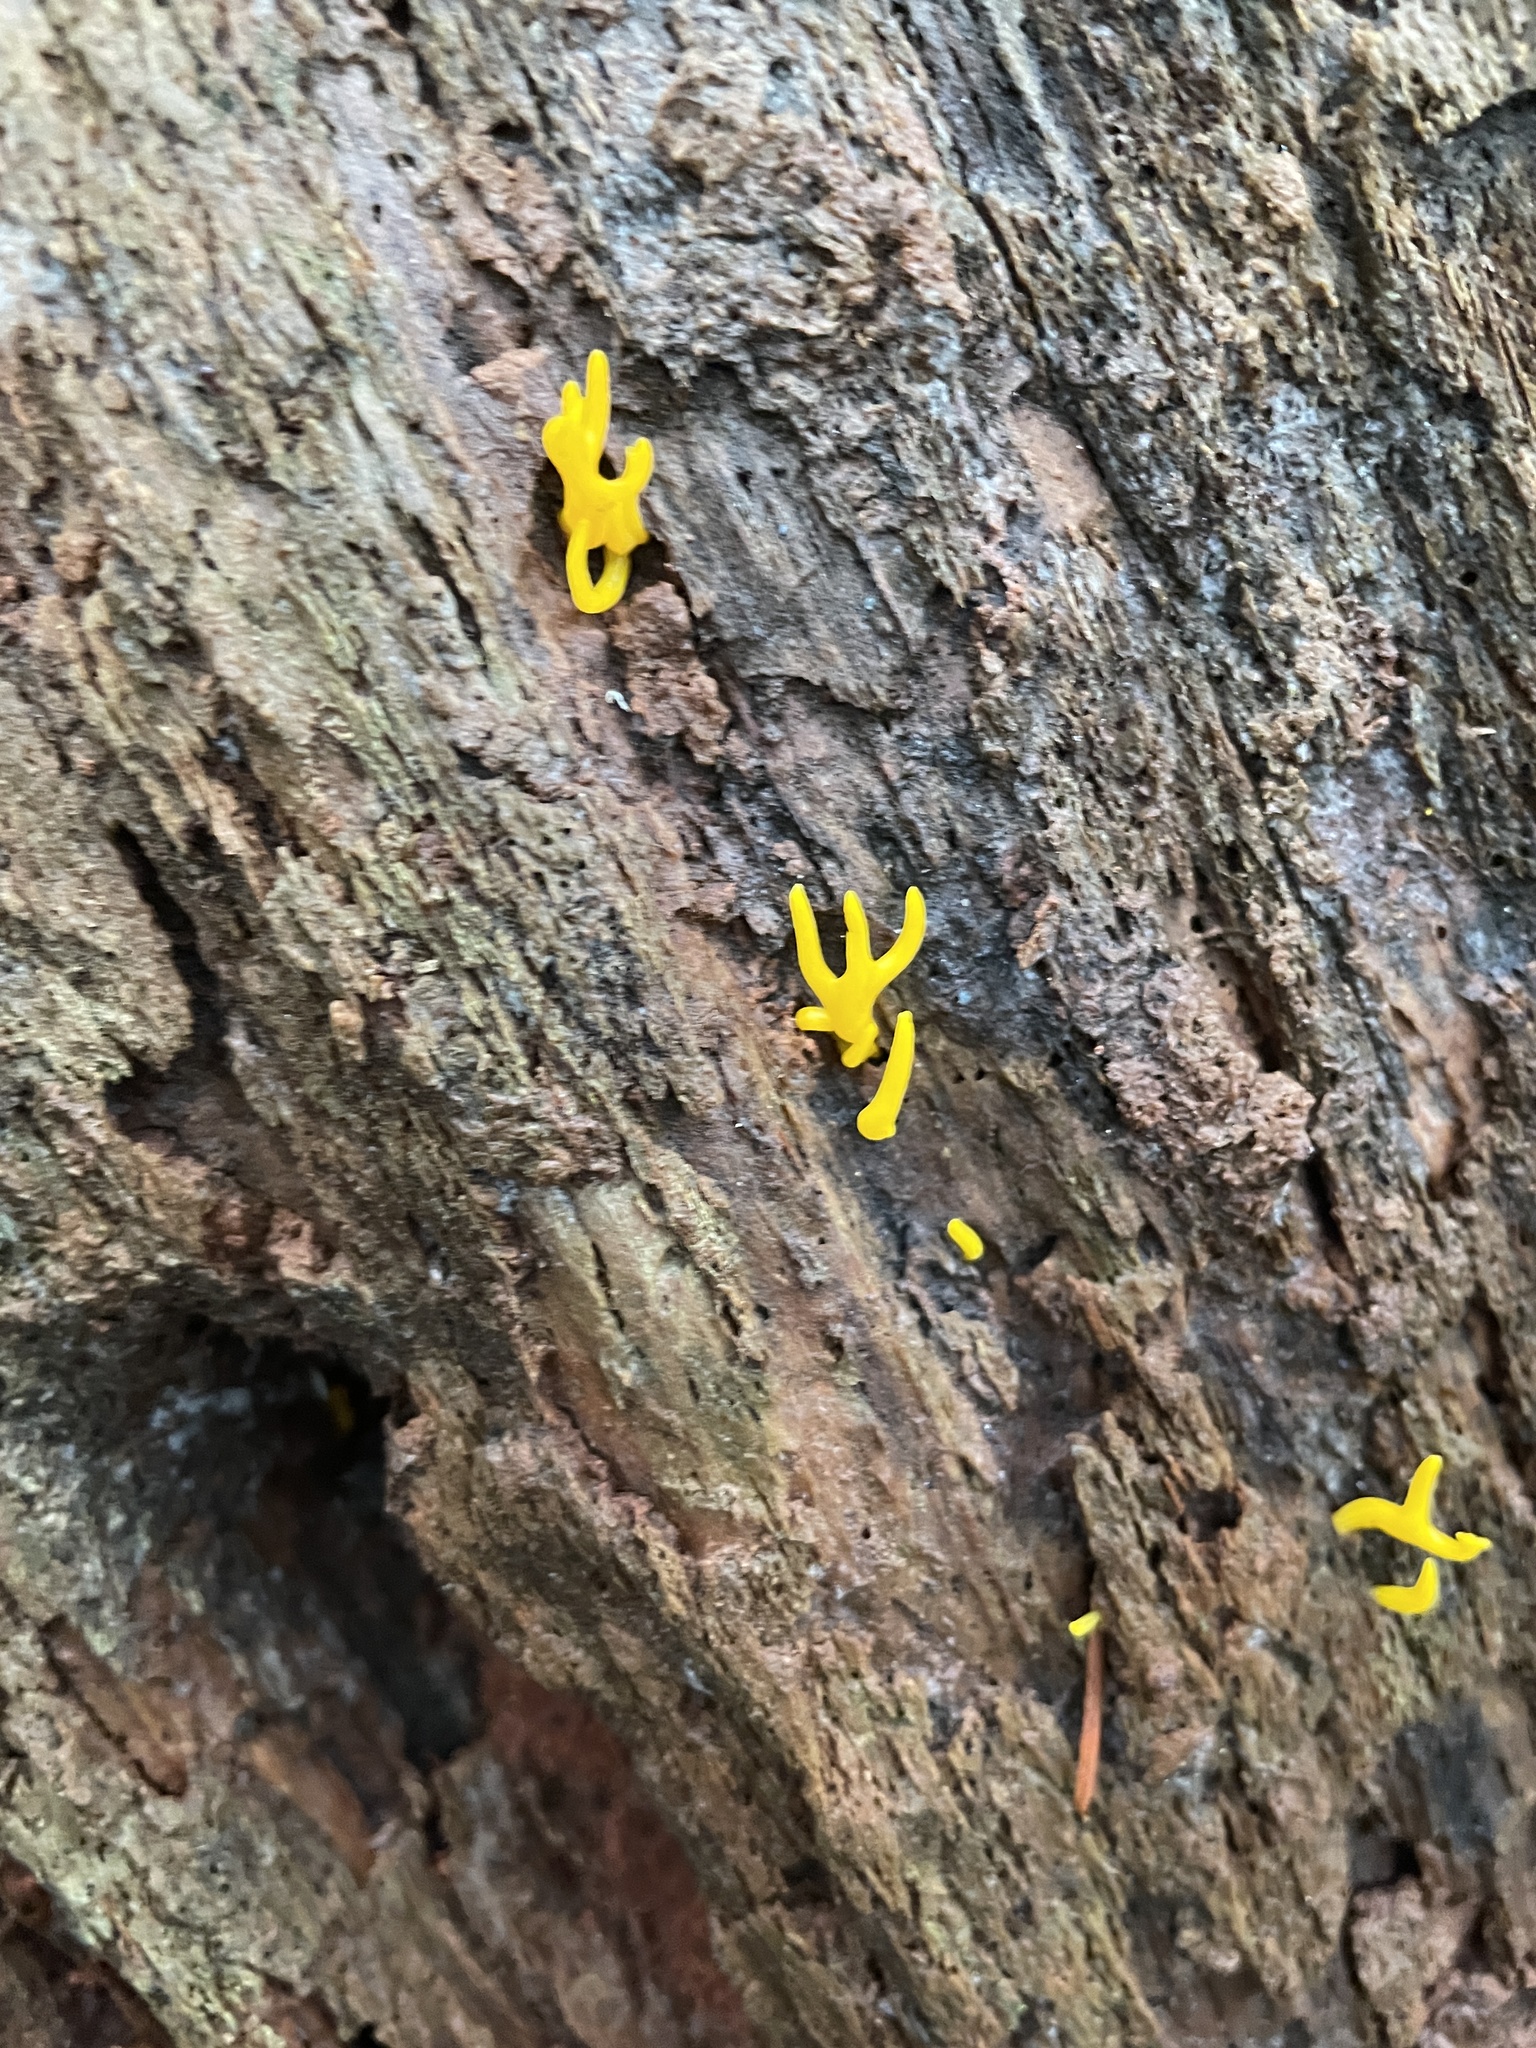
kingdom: Fungi
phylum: Basidiomycota
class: Dacrymycetes
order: Dacrymycetales
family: Dacrymycetaceae
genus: Calocera
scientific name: Calocera viscosa
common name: Yellow stagshorn
